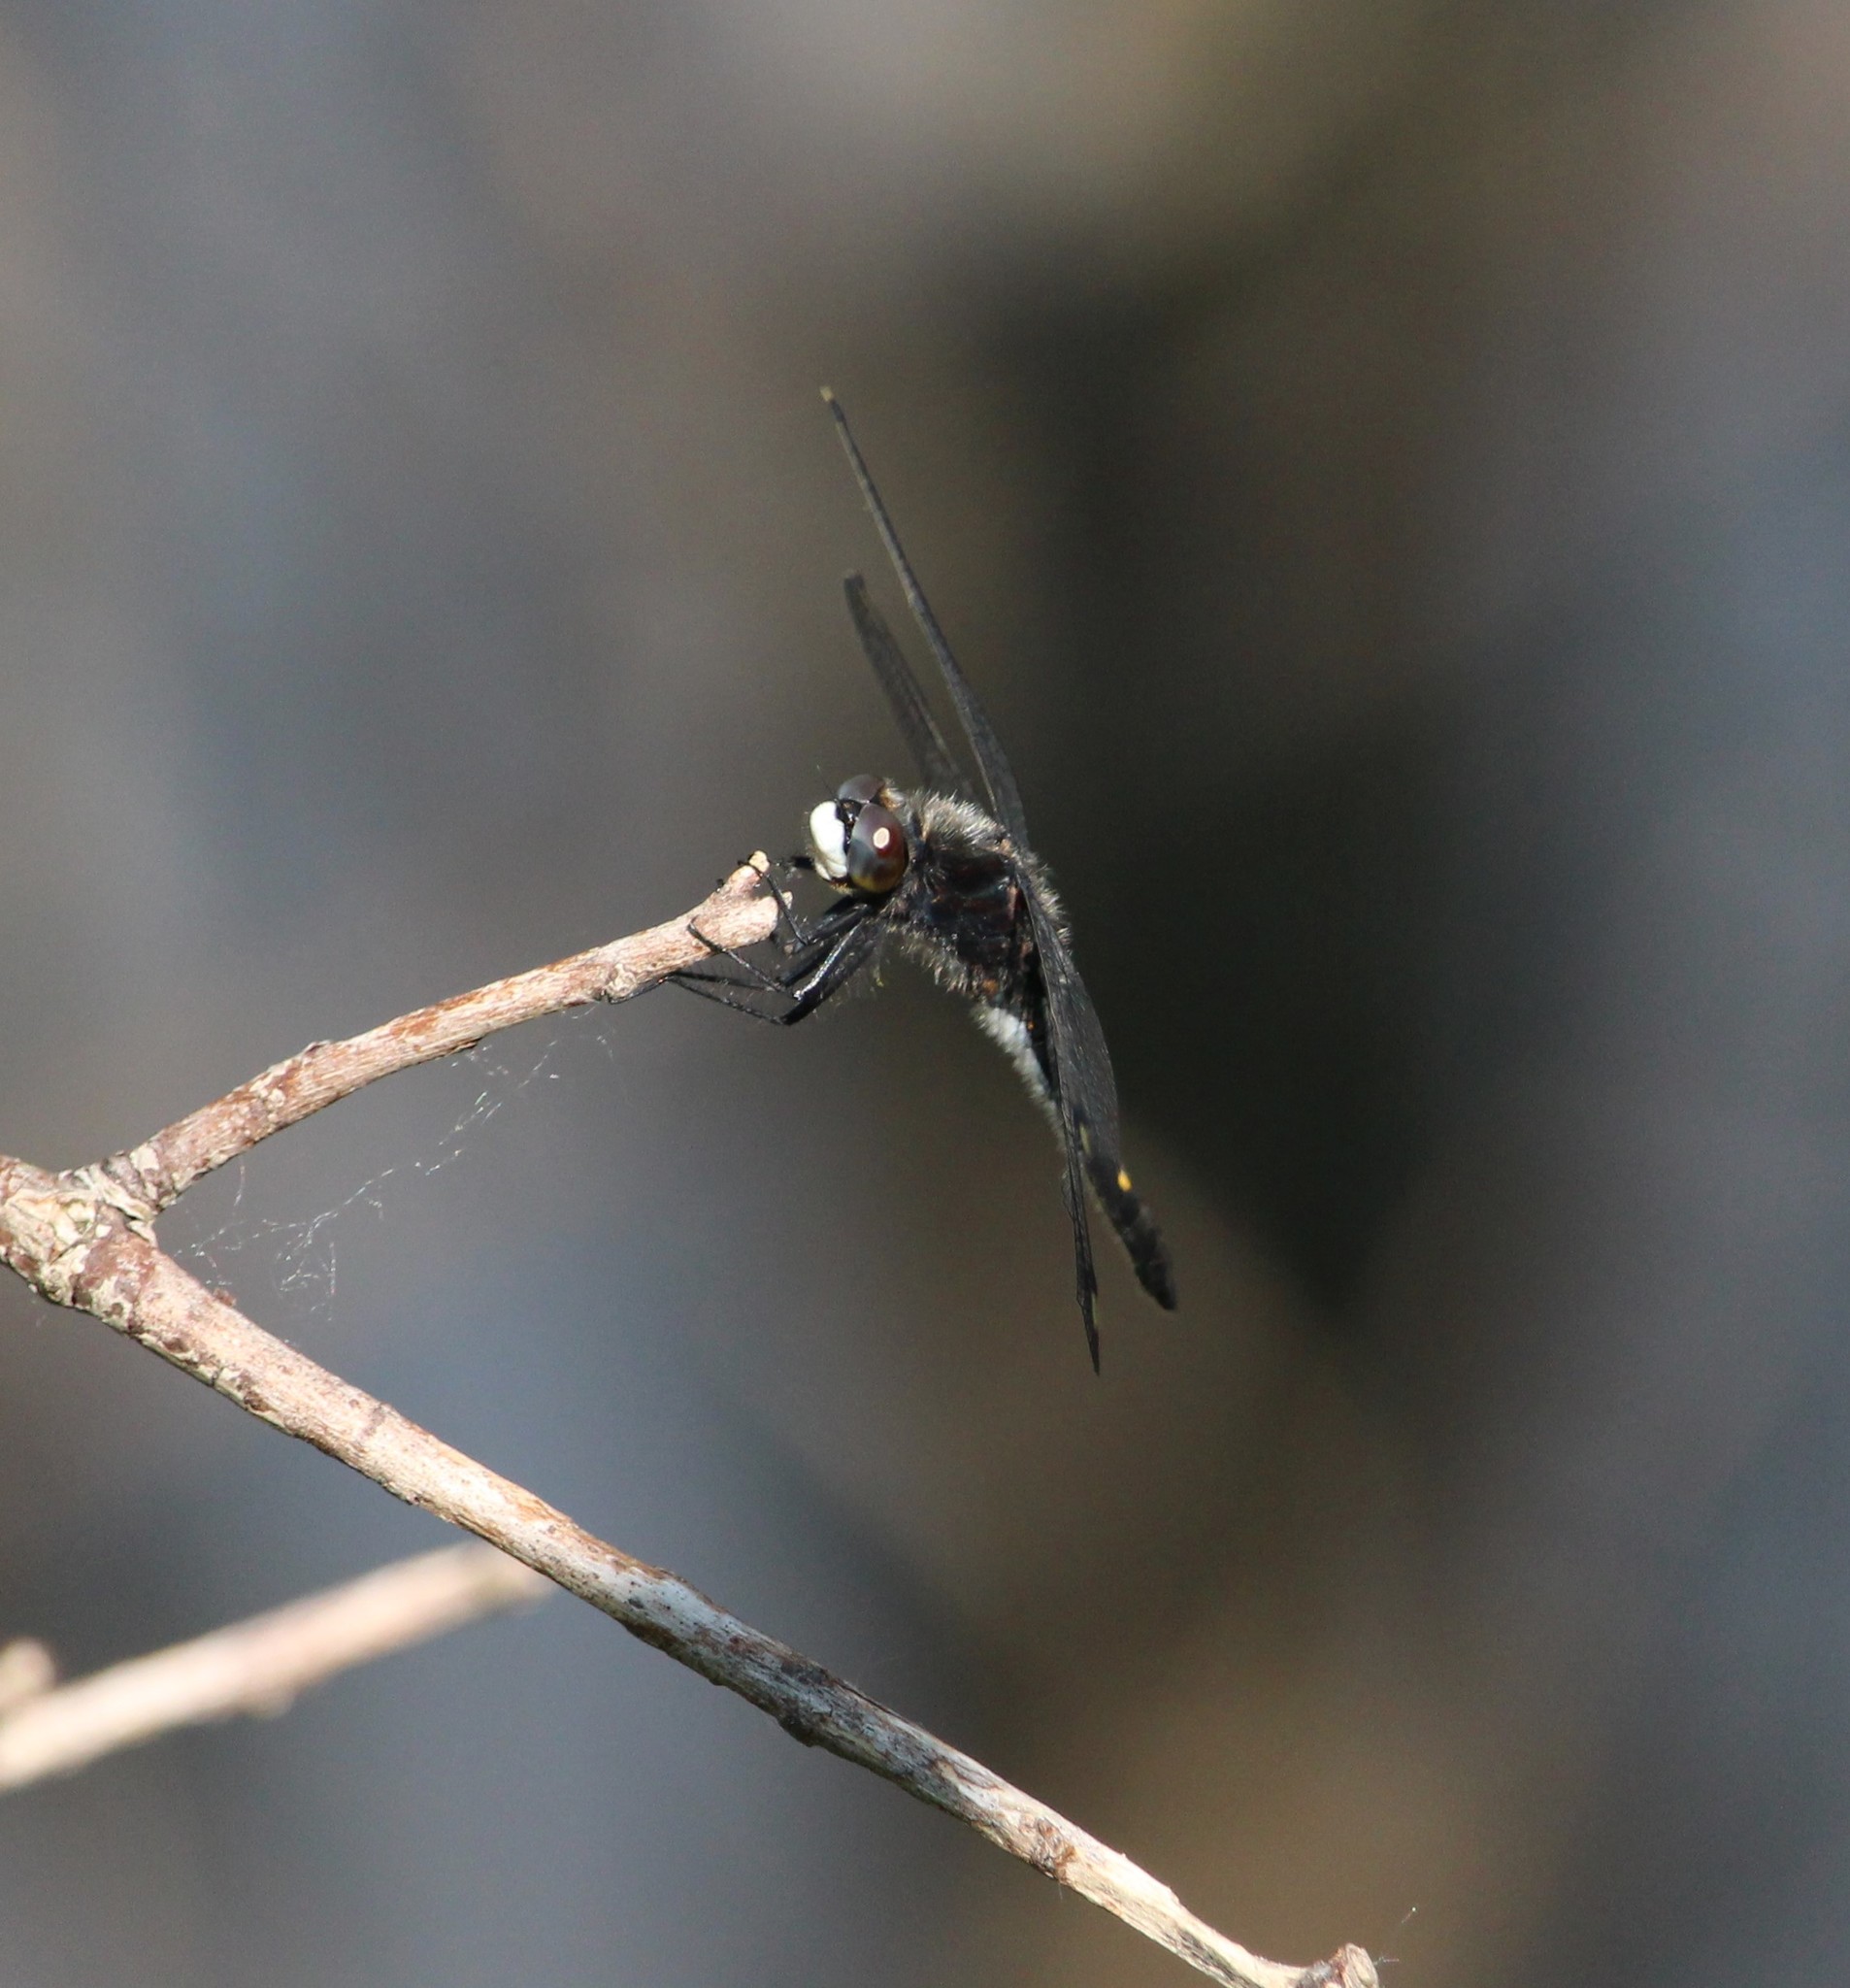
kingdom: Animalia
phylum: Arthropoda
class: Insecta
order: Odonata
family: Libellulidae
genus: Leucorrhinia
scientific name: Leucorrhinia intacta
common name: Dot-tailed whiteface
